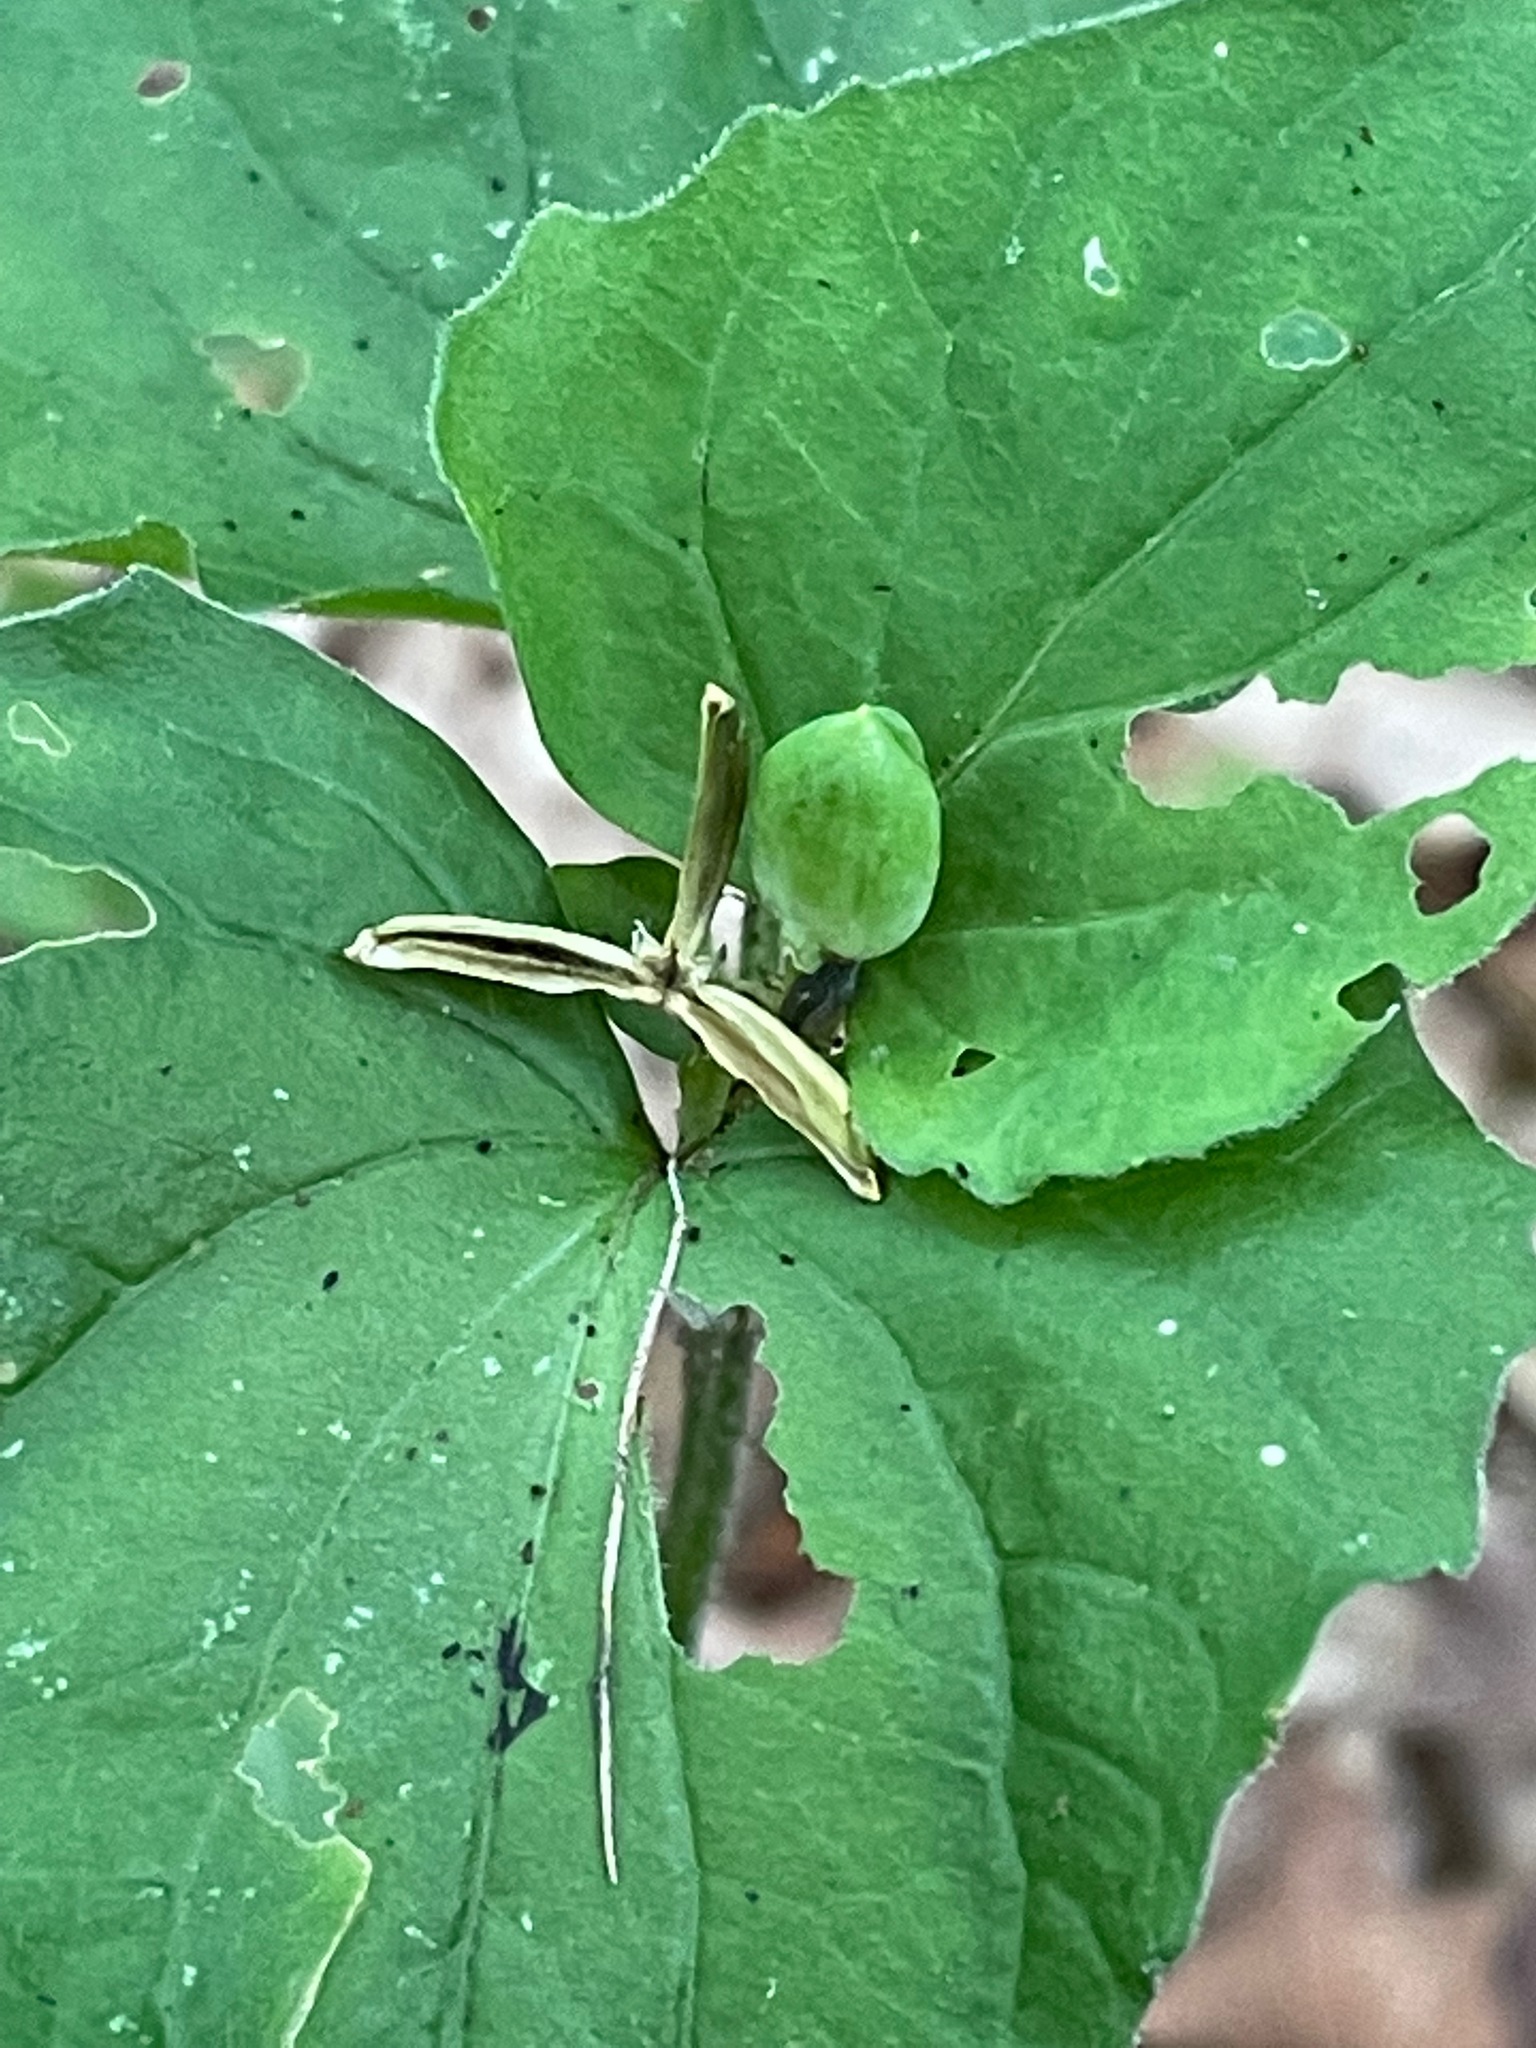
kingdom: Plantae
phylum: Tracheophyta
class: Magnoliopsida
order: Malpighiales
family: Violaceae
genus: Viola
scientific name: Viola eriocarpa
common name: Smooth yellow violet
